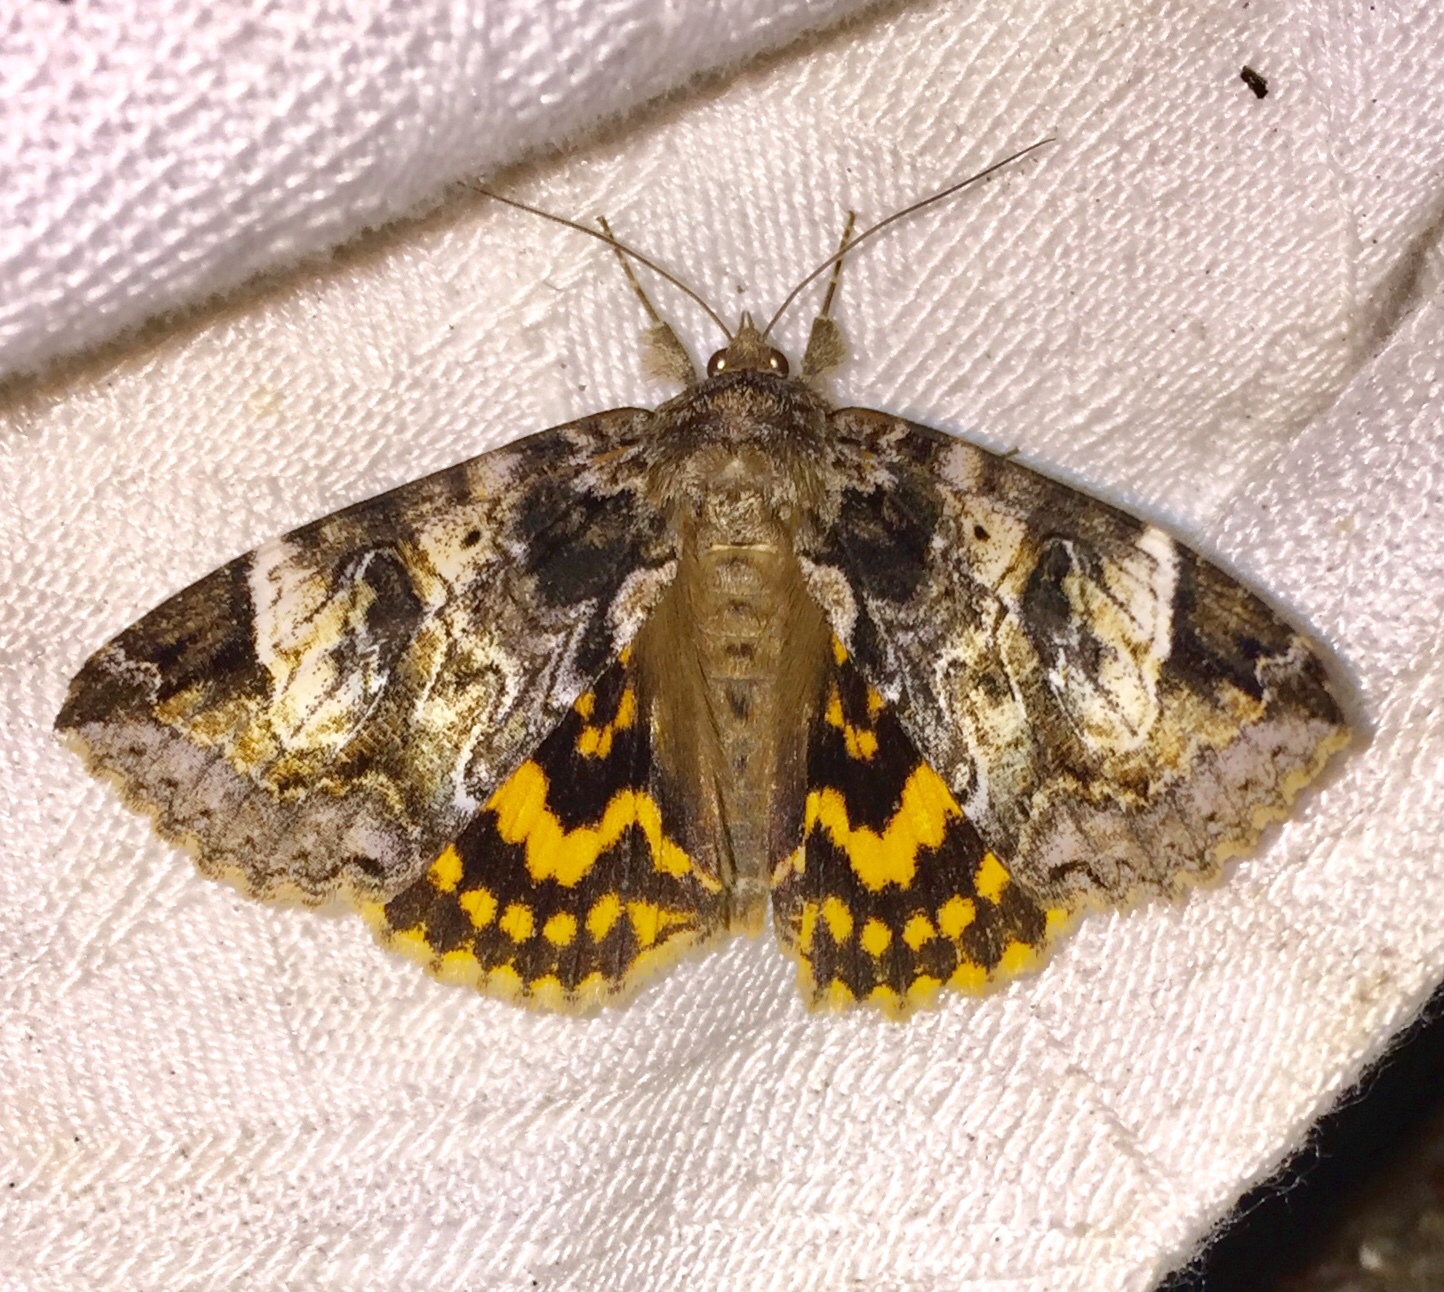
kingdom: Animalia
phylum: Arthropoda
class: Insecta
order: Lepidoptera
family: Erebidae
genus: Euparthenos
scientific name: Euparthenos nubilis
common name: Locust underwing
